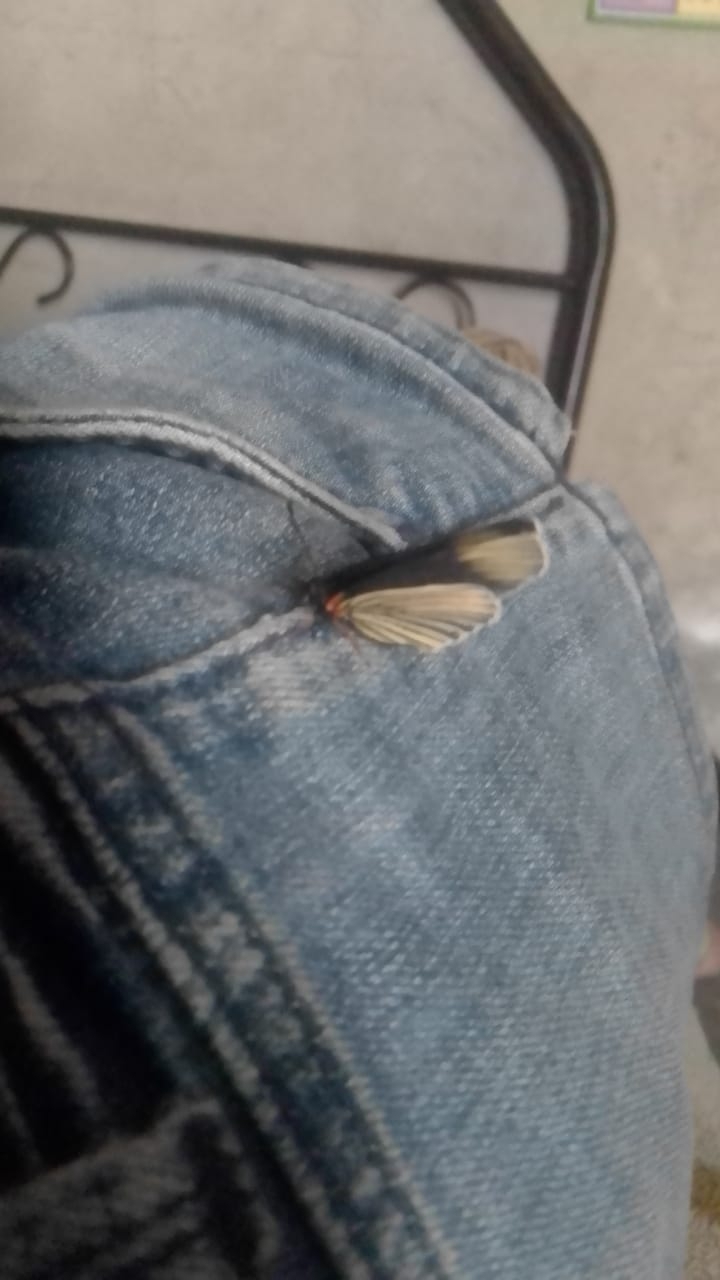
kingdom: Animalia
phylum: Arthropoda
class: Insecta
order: Lepidoptera
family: Nymphalidae
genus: Chlosyne
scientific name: Chlosyne ehrenbergii
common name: White-rayed patch
